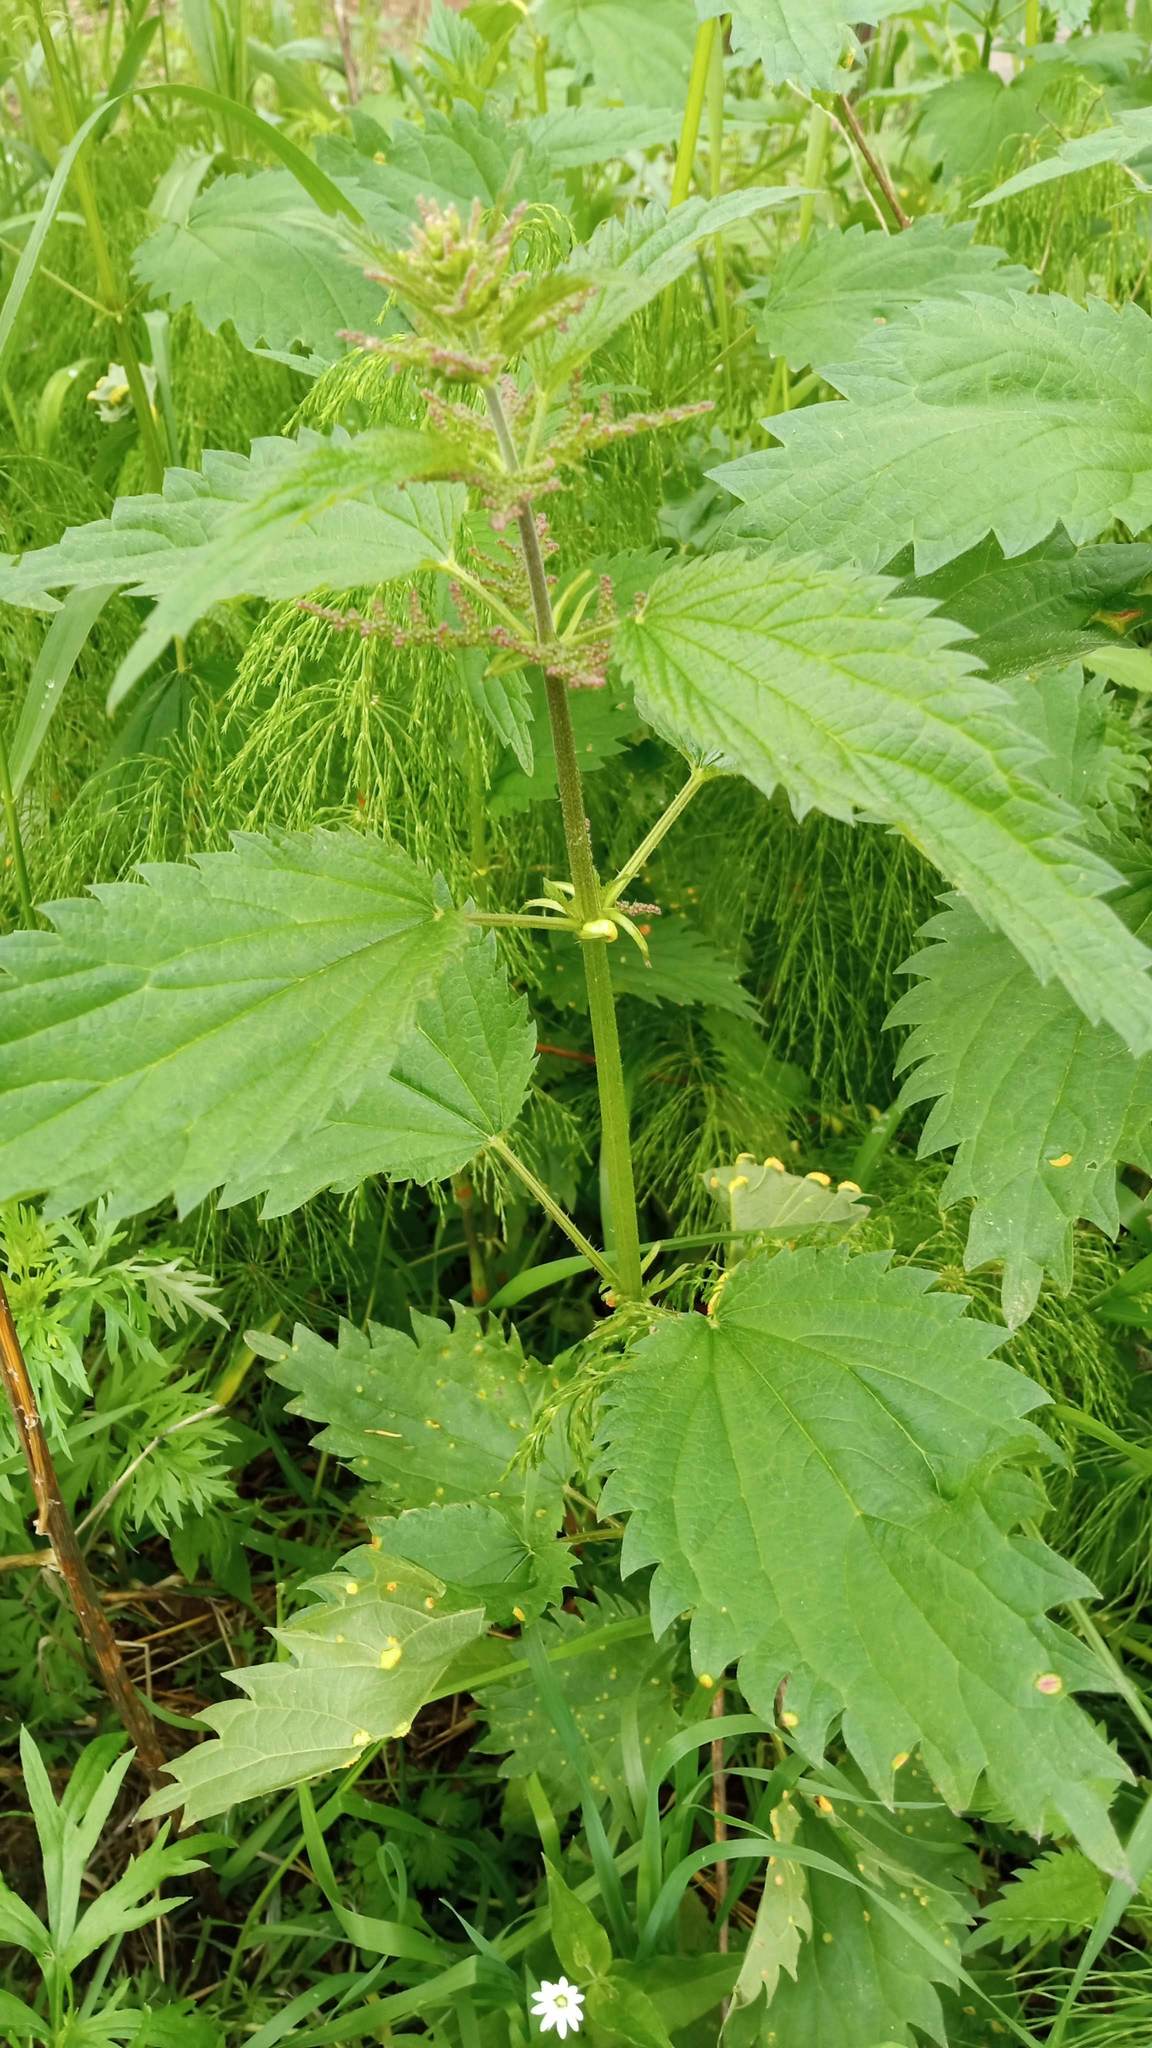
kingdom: Plantae
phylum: Tracheophyta
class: Magnoliopsida
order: Rosales
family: Urticaceae
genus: Urtica
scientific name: Urtica dioica
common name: Common nettle
